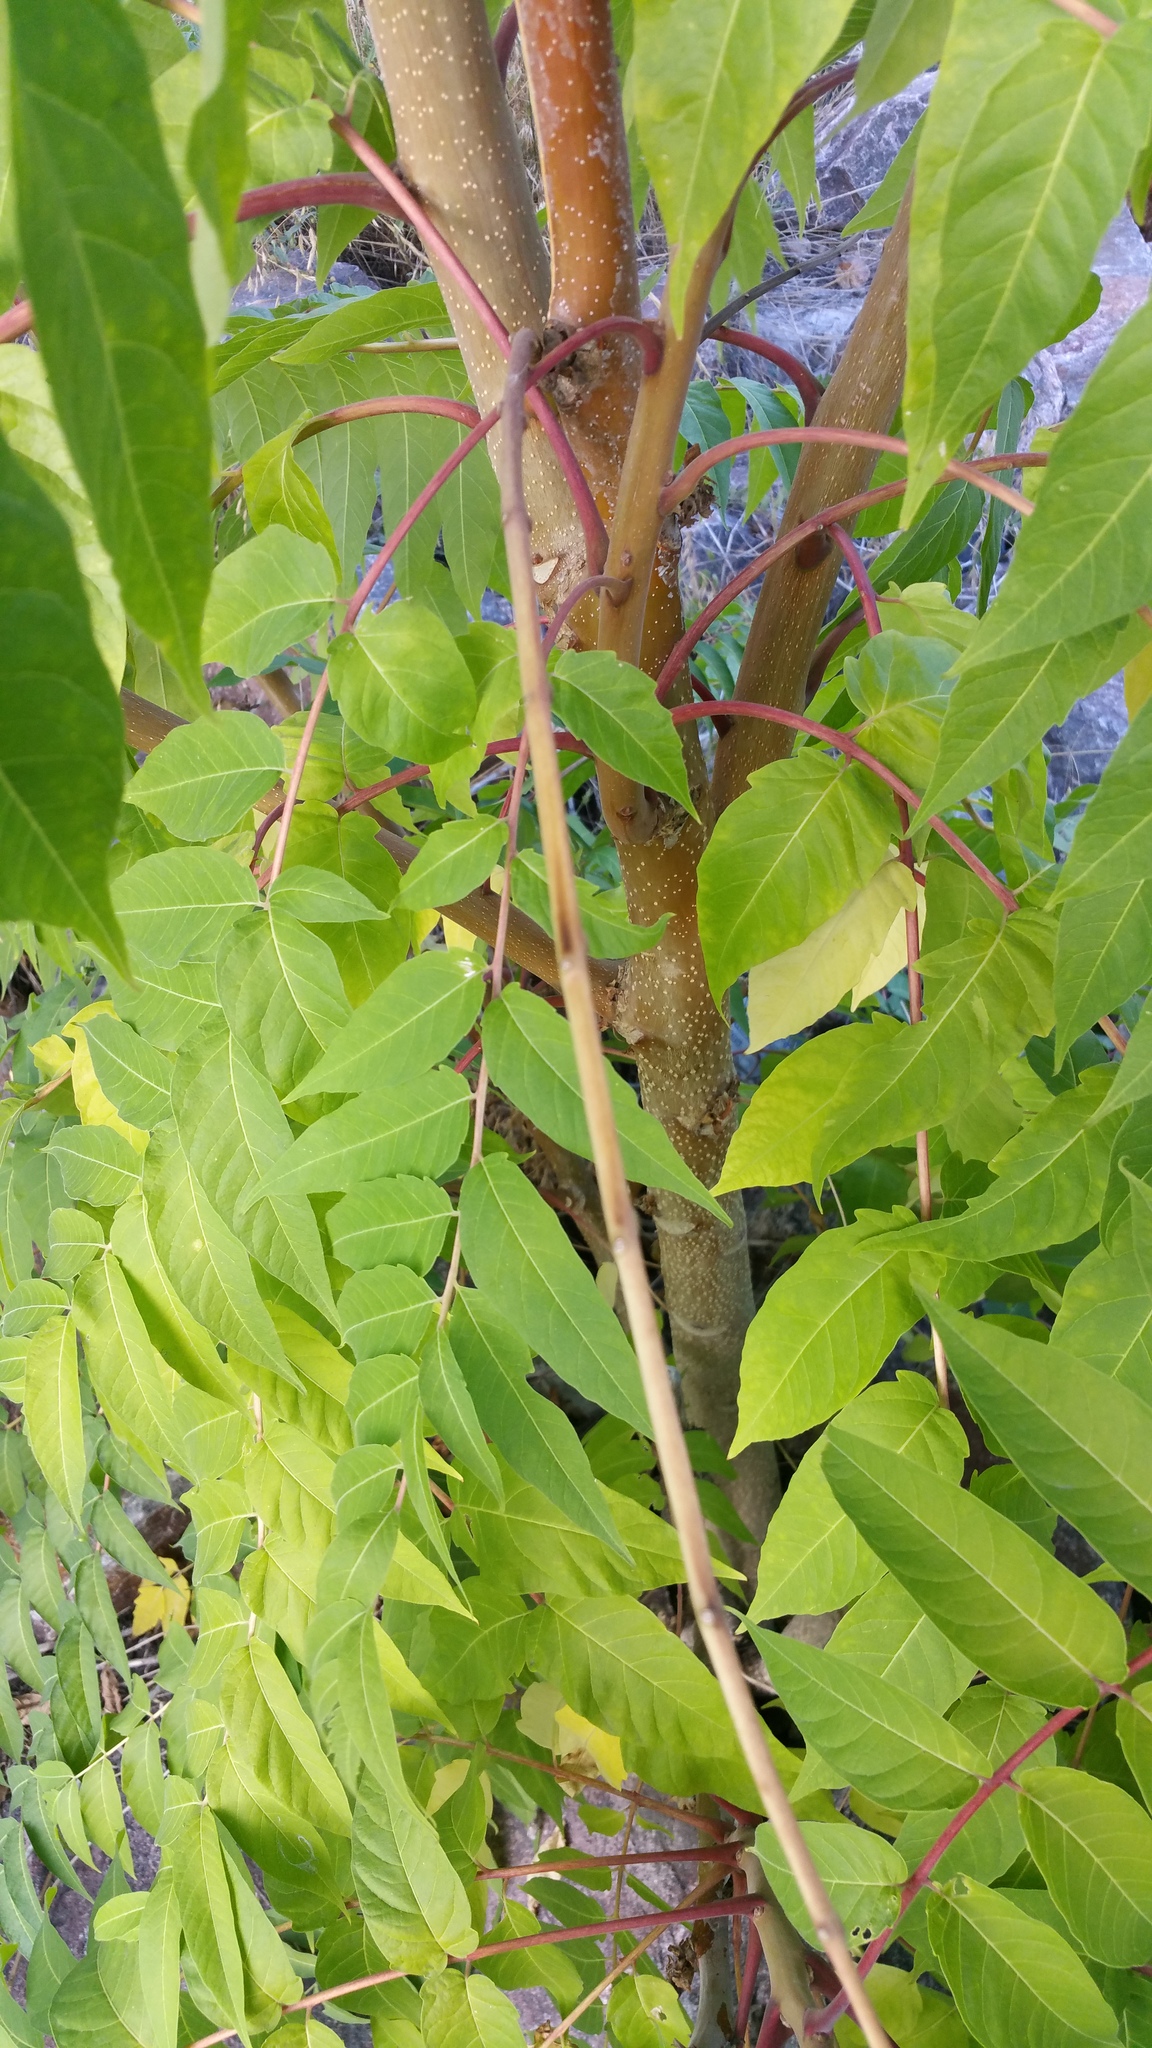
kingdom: Plantae
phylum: Tracheophyta
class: Magnoliopsida
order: Sapindales
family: Simaroubaceae
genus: Ailanthus
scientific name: Ailanthus altissima
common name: Tree-of-heaven
